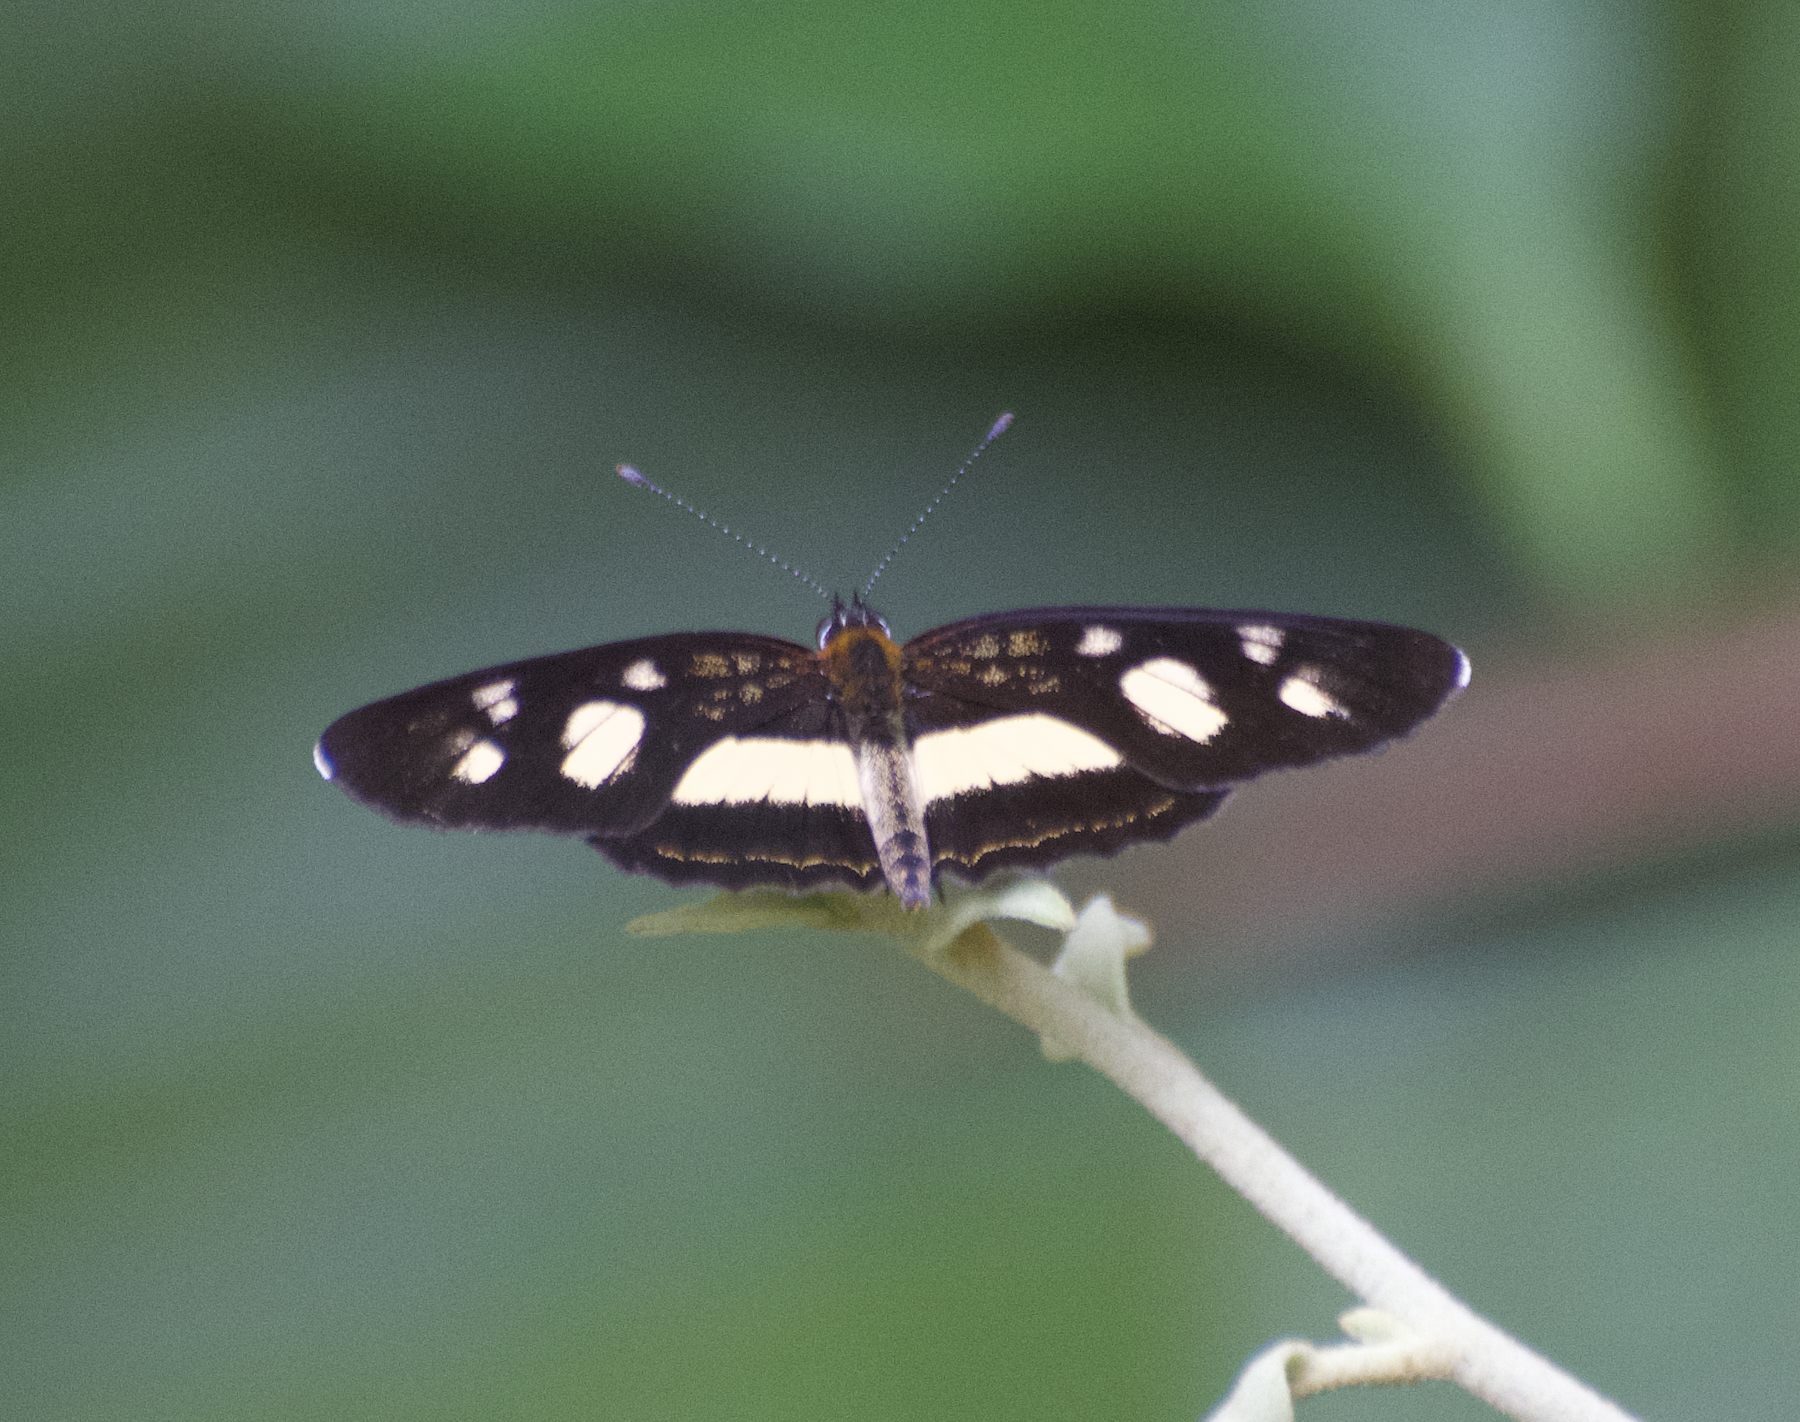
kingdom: Animalia
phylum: Arthropoda
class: Insecta
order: Lepidoptera
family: Nymphalidae
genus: Eresia
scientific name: Eresia clio
